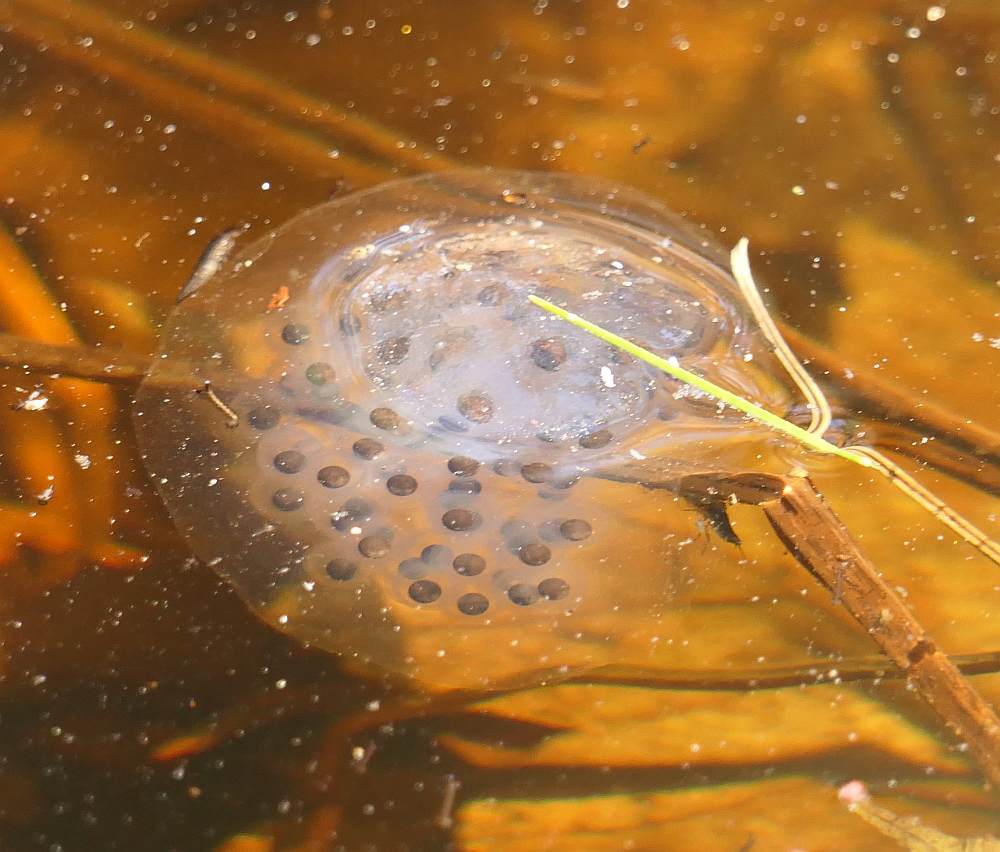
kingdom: Animalia
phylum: Chordata
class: Amphibia
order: Caudata
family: Ambystomatidae
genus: Ambystoma
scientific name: Ambystoma maculatum
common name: Spotted salamander
